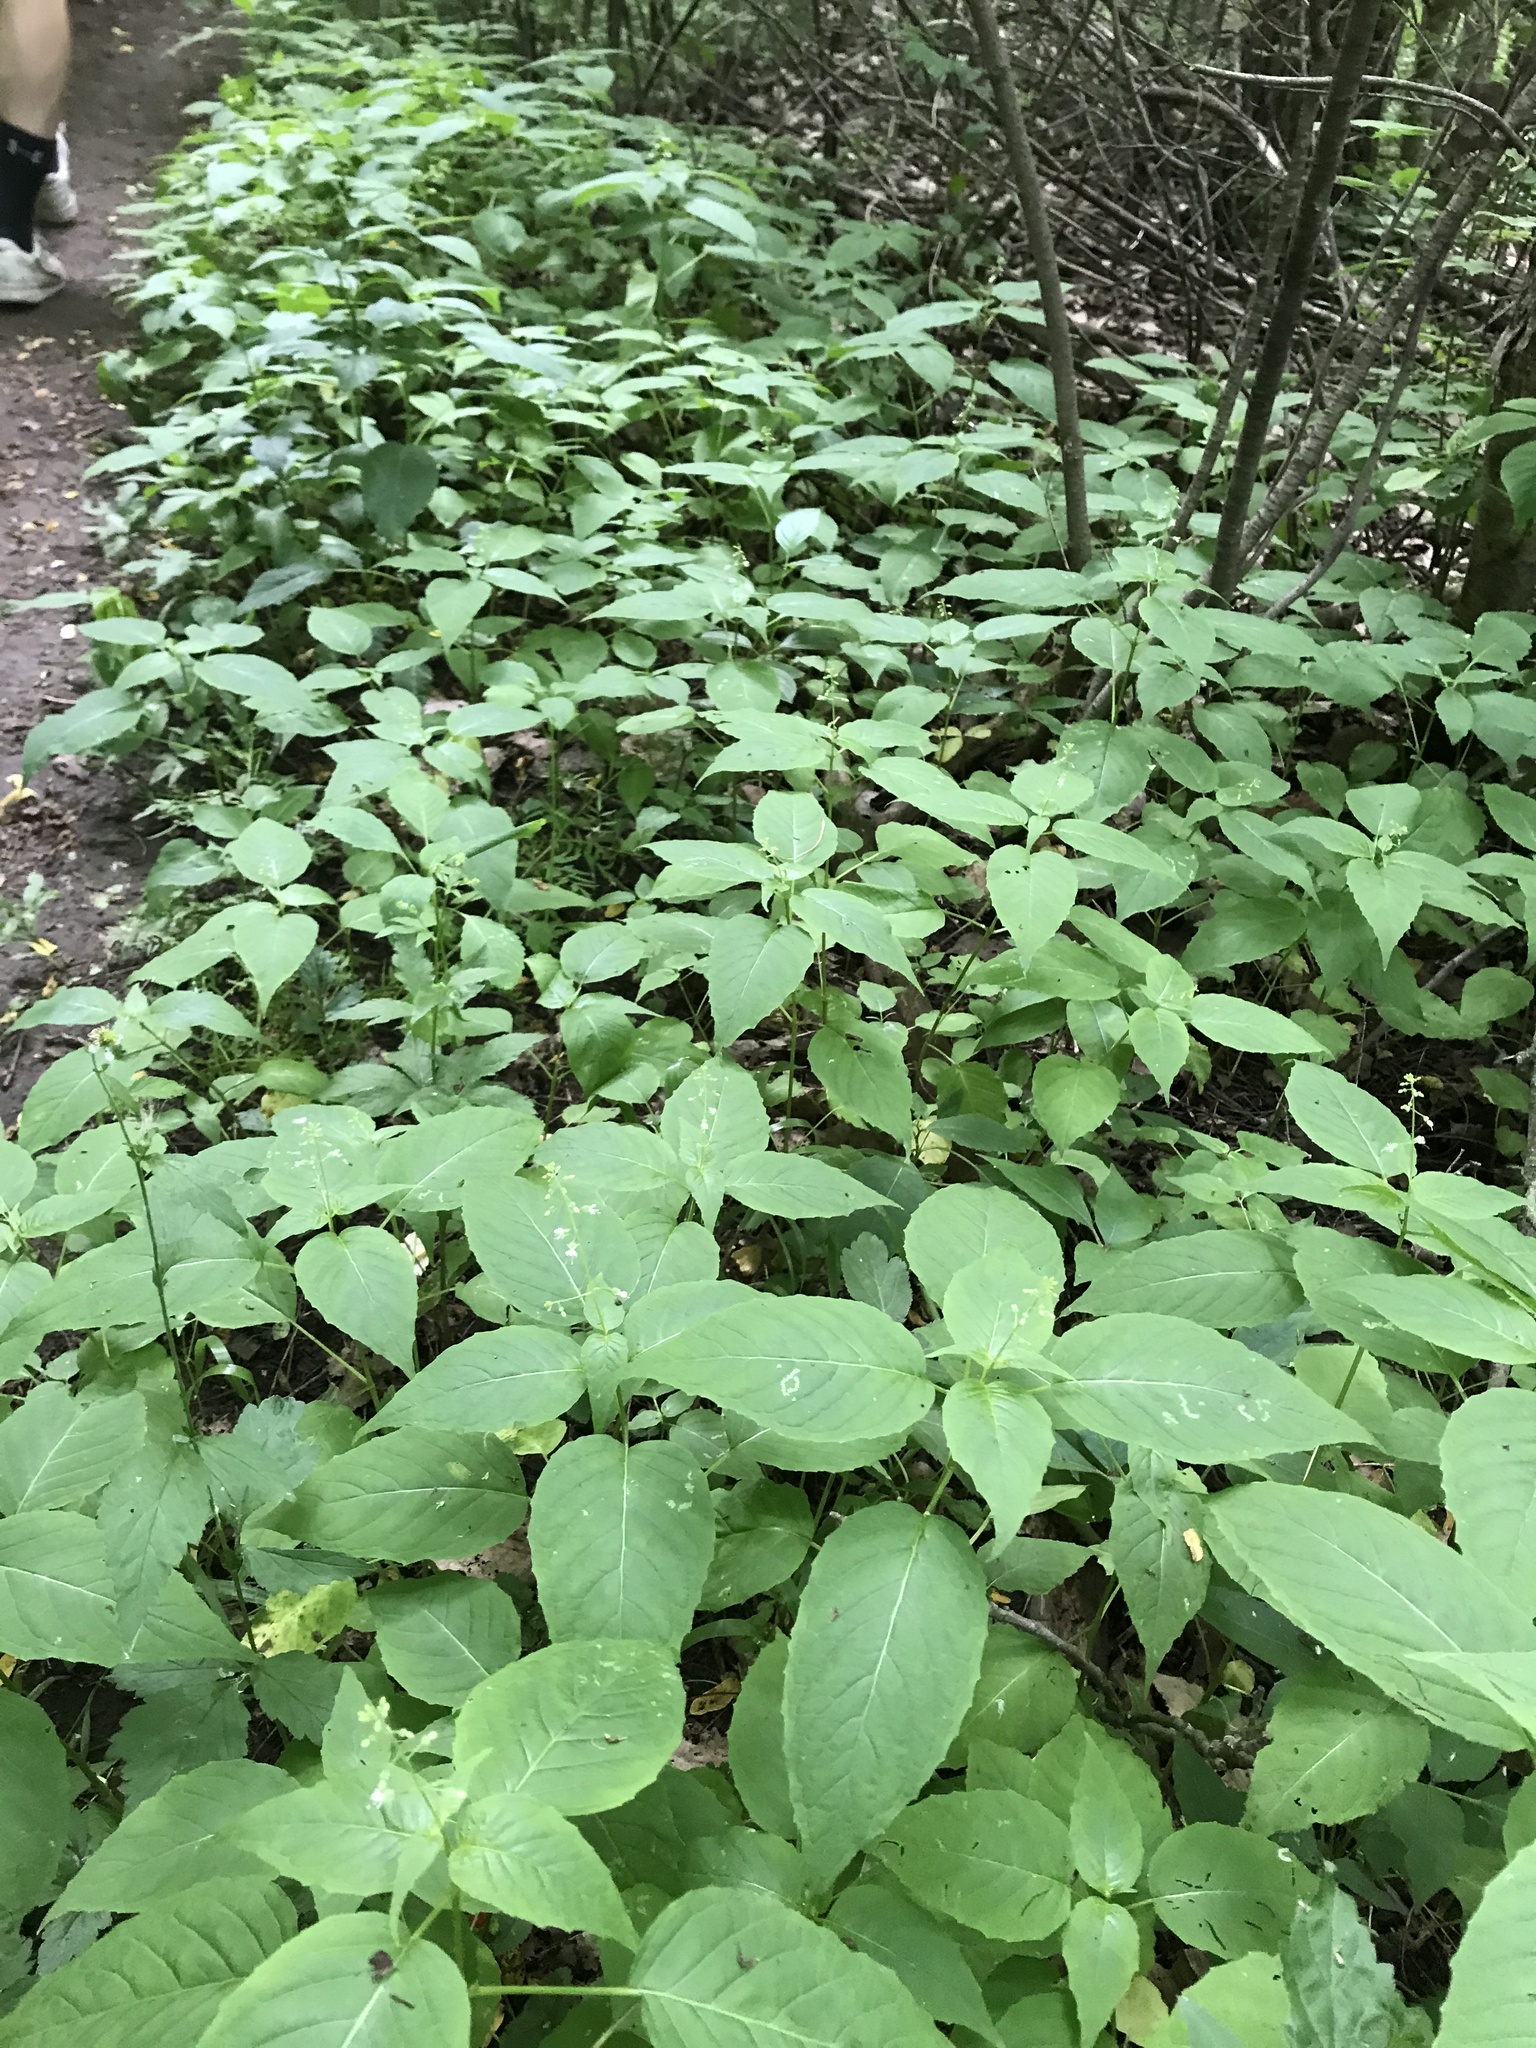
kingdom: Plantae
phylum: Tracheophyta
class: Magnoliopsida
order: Myrtales
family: Onagraceae
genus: Circaea
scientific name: Circaea canadensis
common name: Broad-leaved enchanter's nightshade
